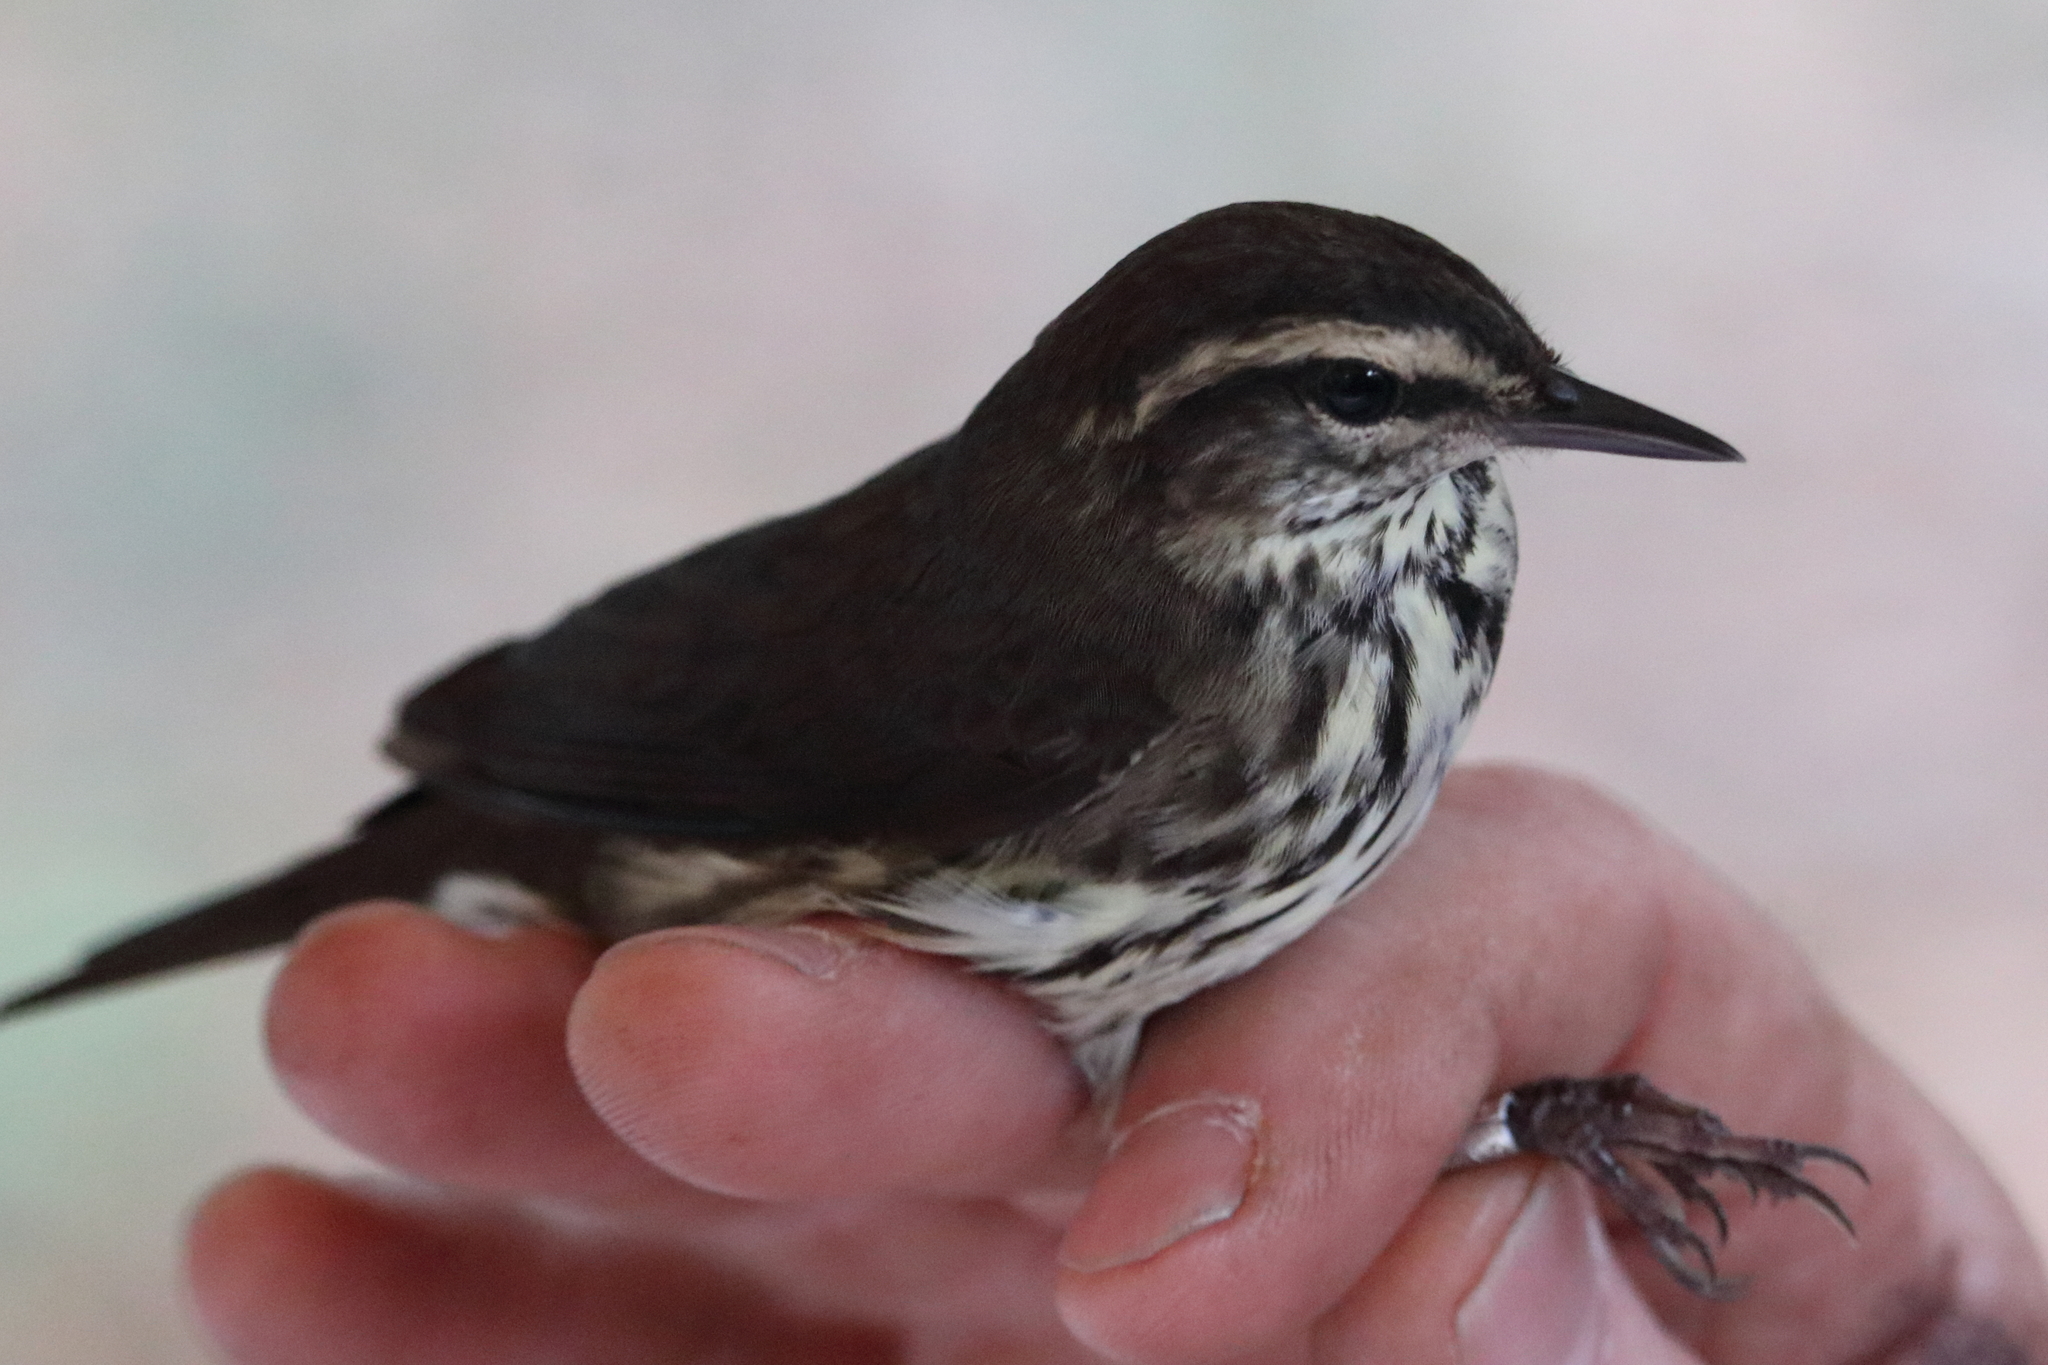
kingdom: Animalia
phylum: Chordata
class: Aves
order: Passeriformes
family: Parulidae
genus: Parkesia
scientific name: Parkesia noveboracensis
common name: Northern waterthrush
